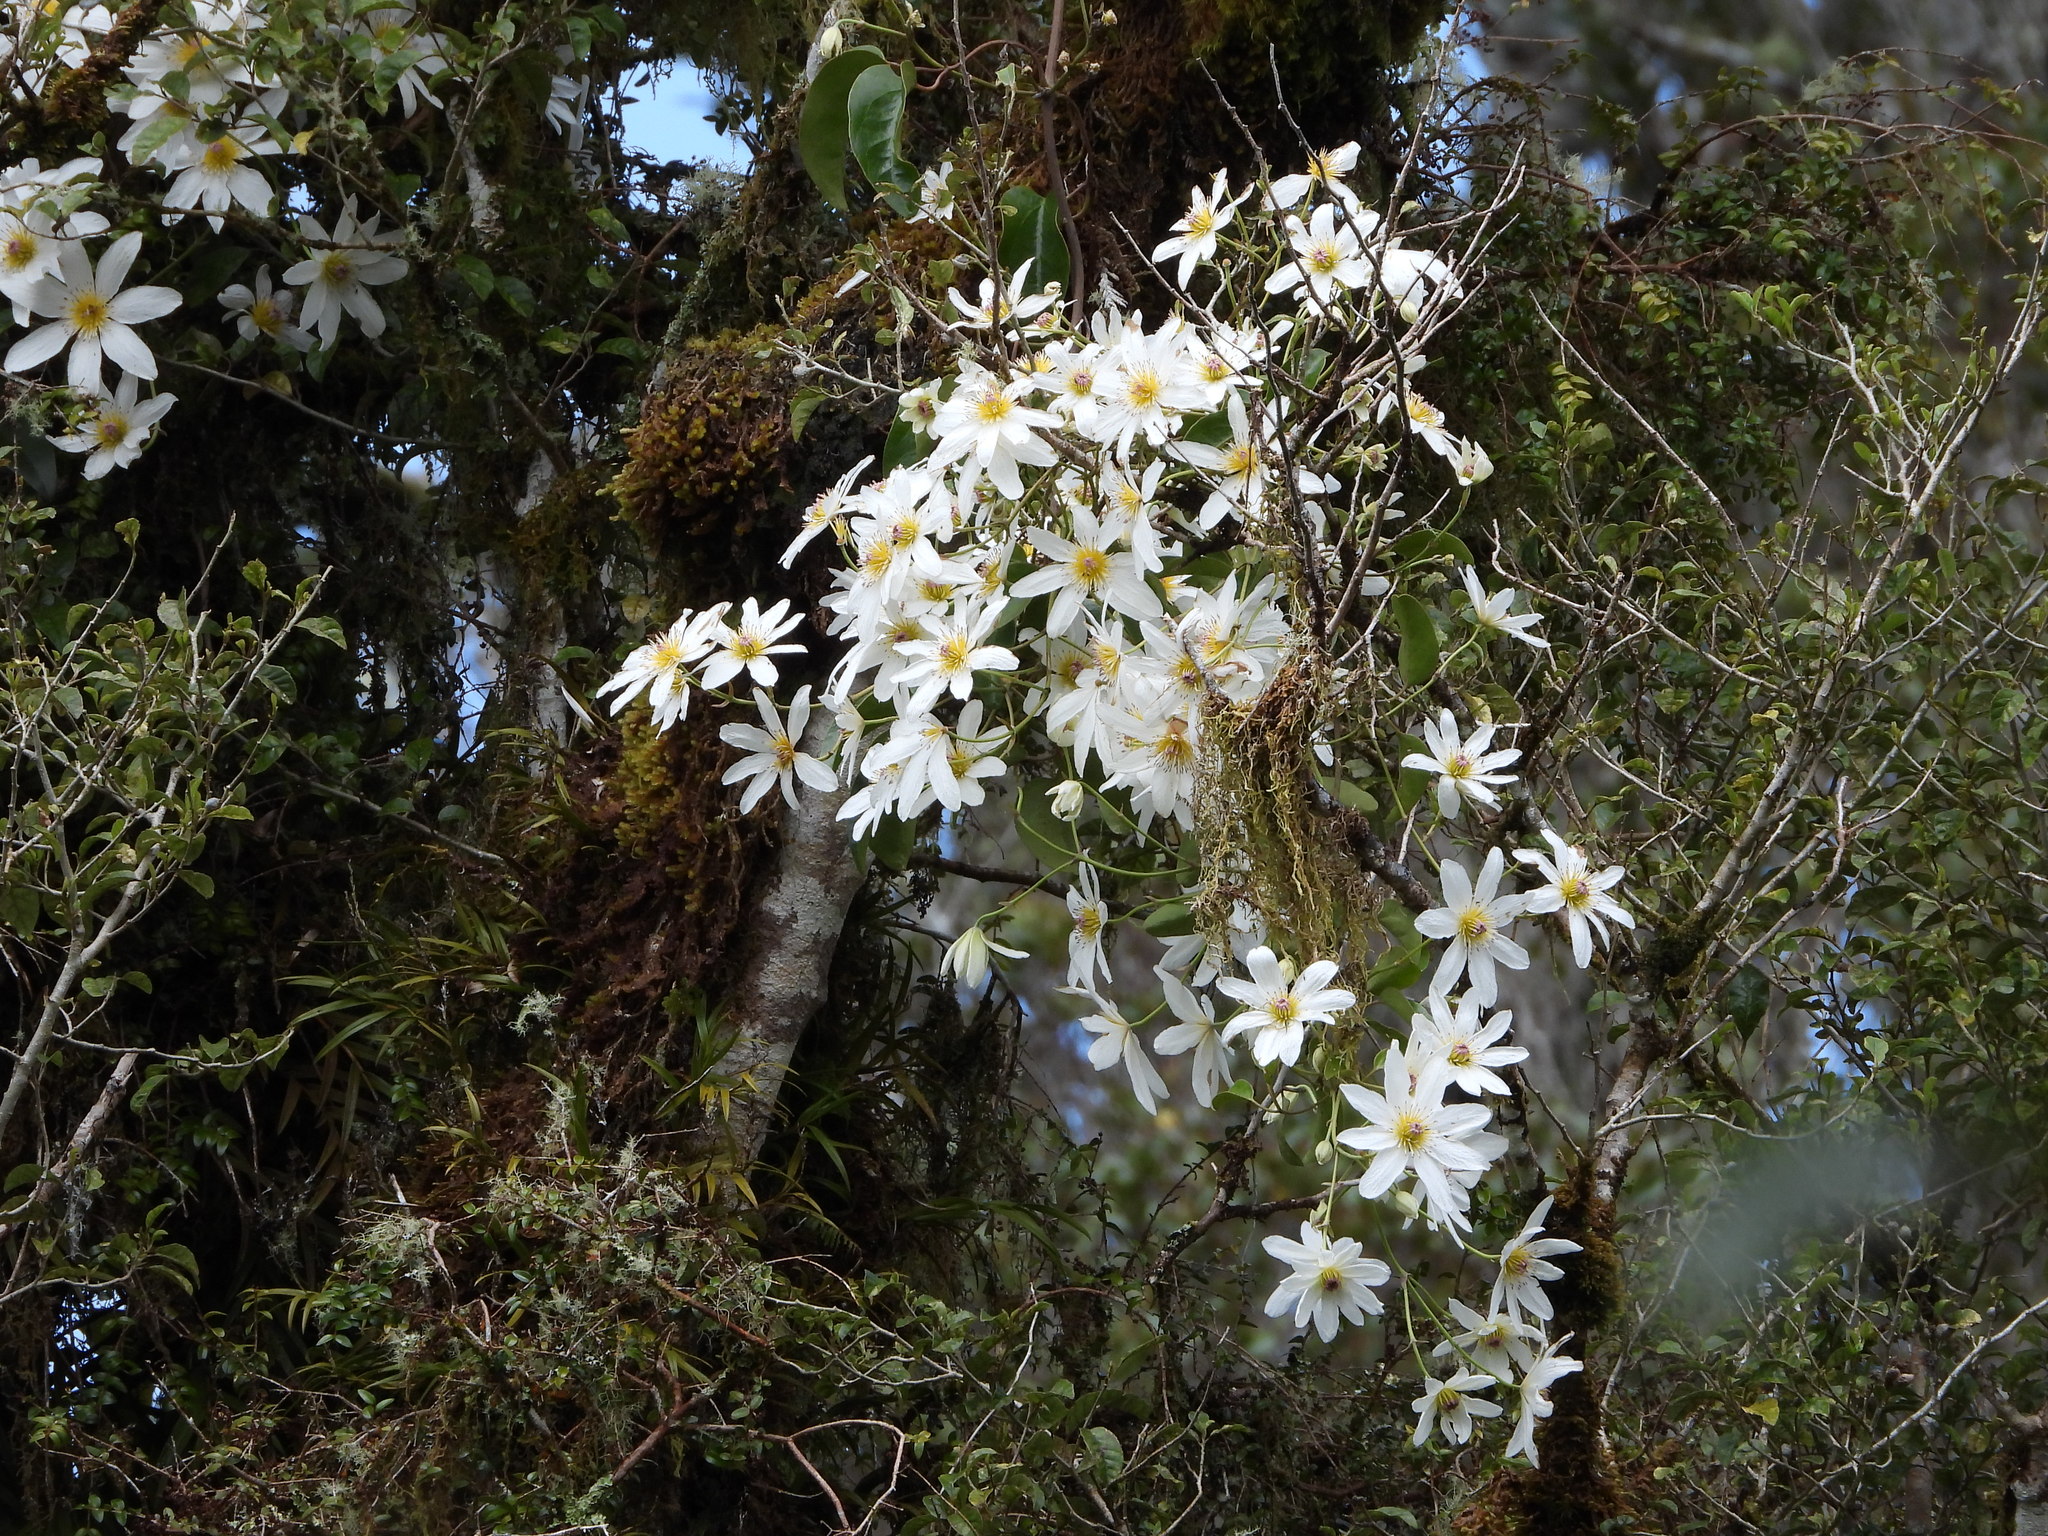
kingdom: Plantae
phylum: Tracheophyta
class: Magnoliopsida
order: Ranunculales
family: Ranunculaceae
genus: Clematis
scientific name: Clematis paniculata
